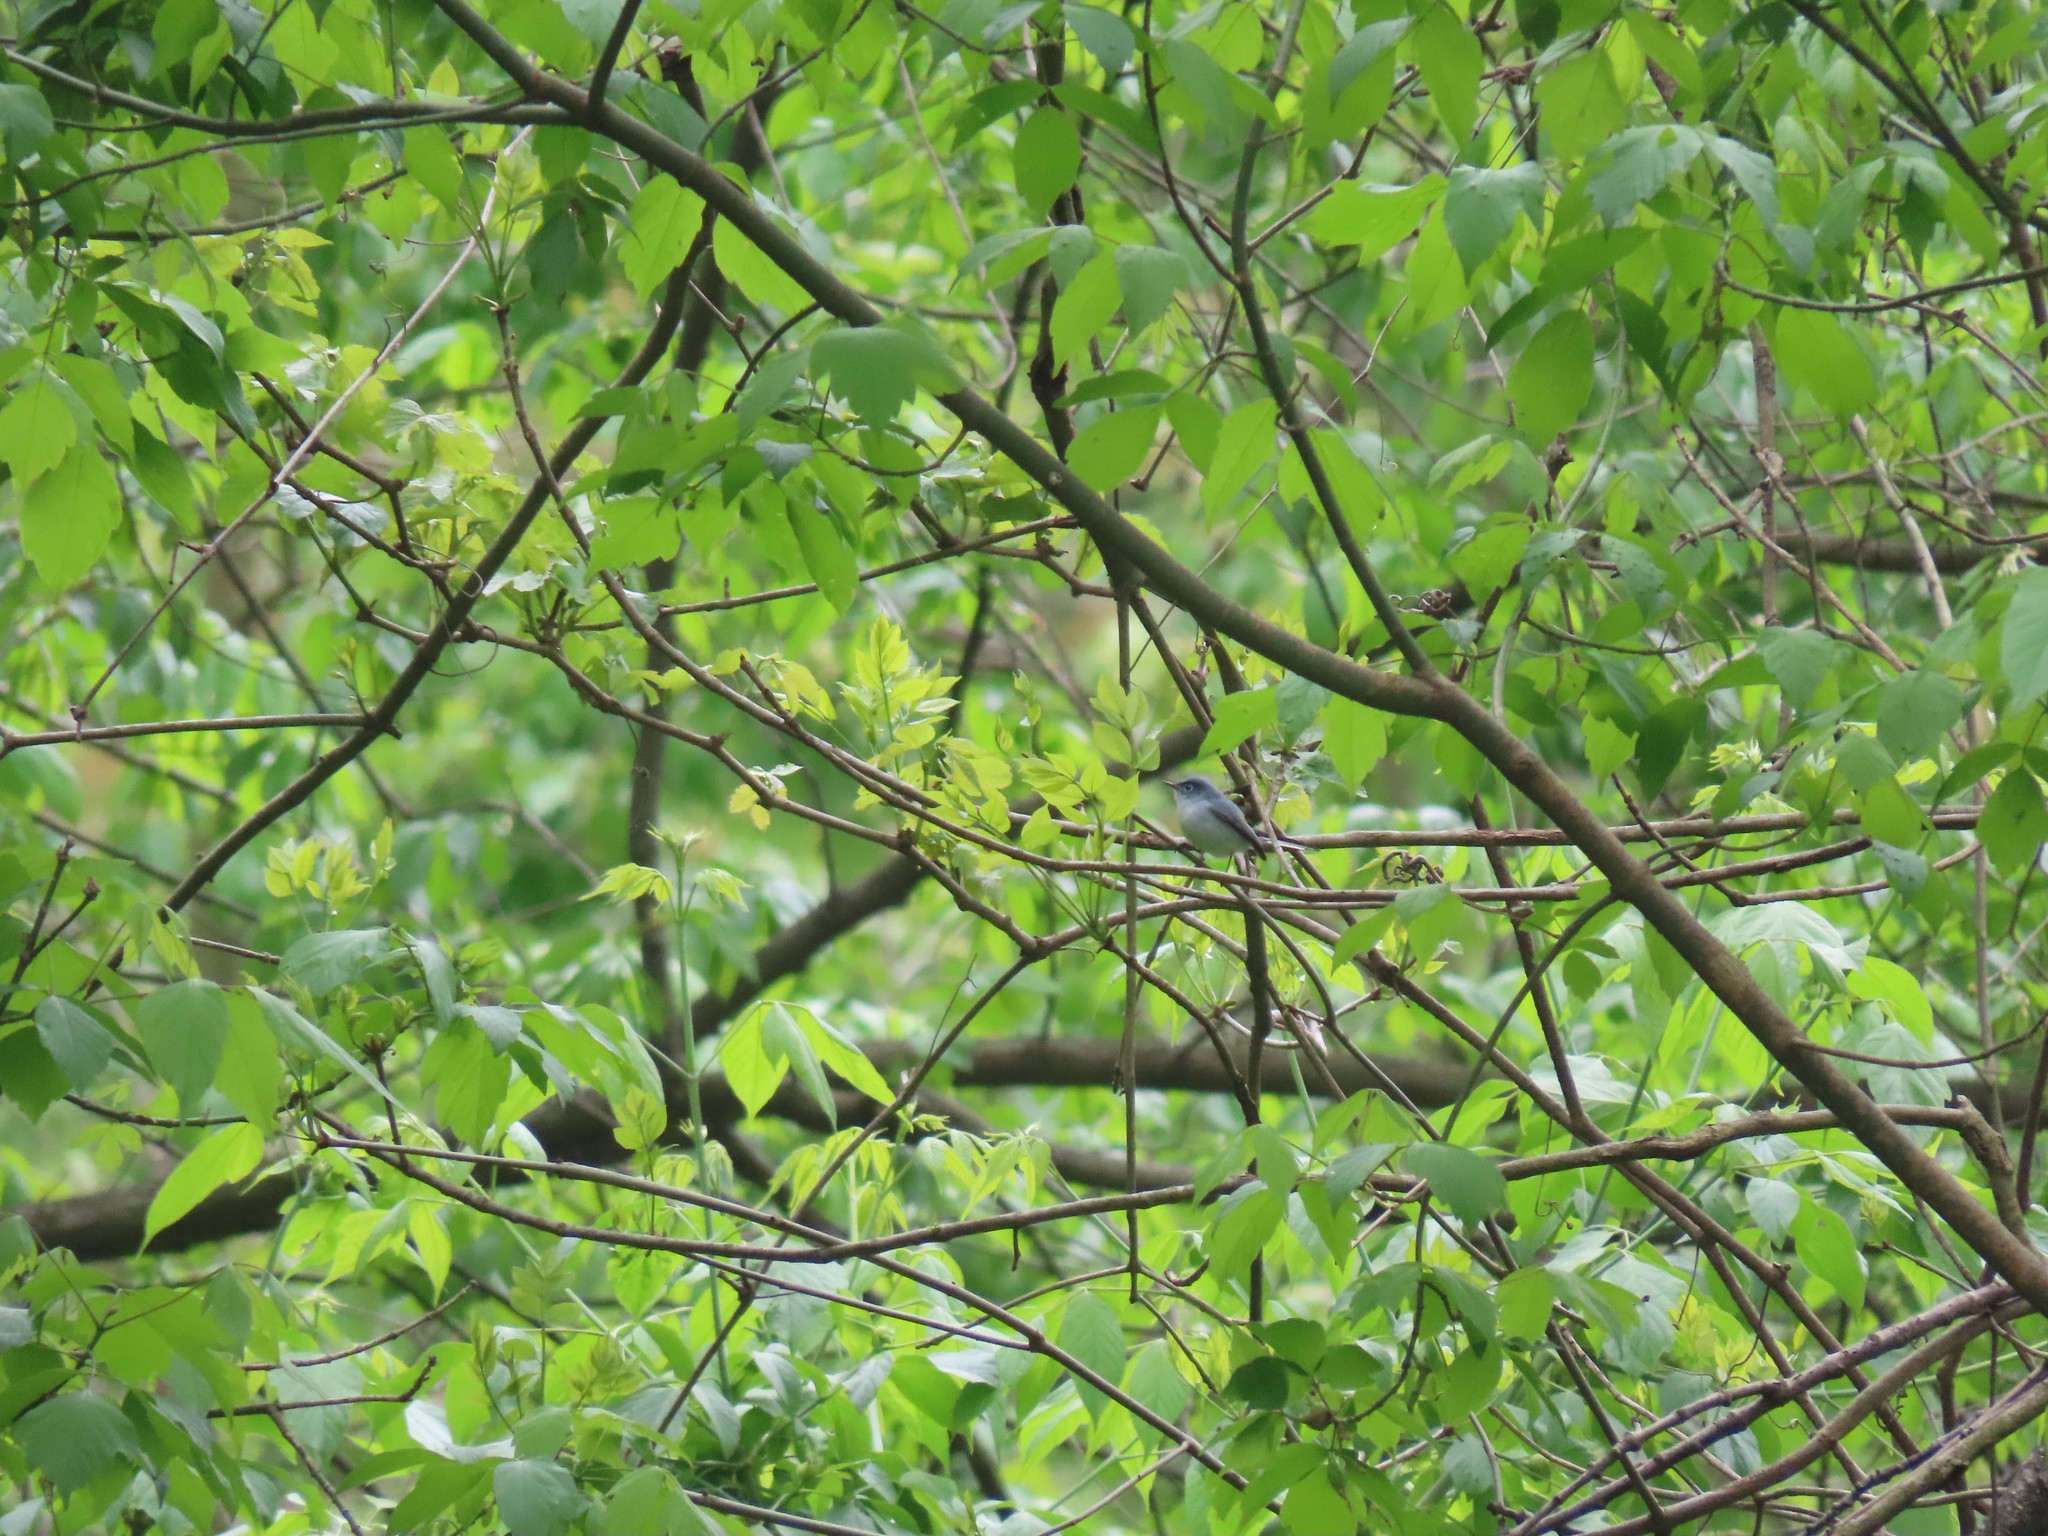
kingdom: Animalia
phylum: Chordata
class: Aves
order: Passeriformes
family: Polioptilidae
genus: Polioptila
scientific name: Polioptila caerulea
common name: Blue-gray gnatcatcher
